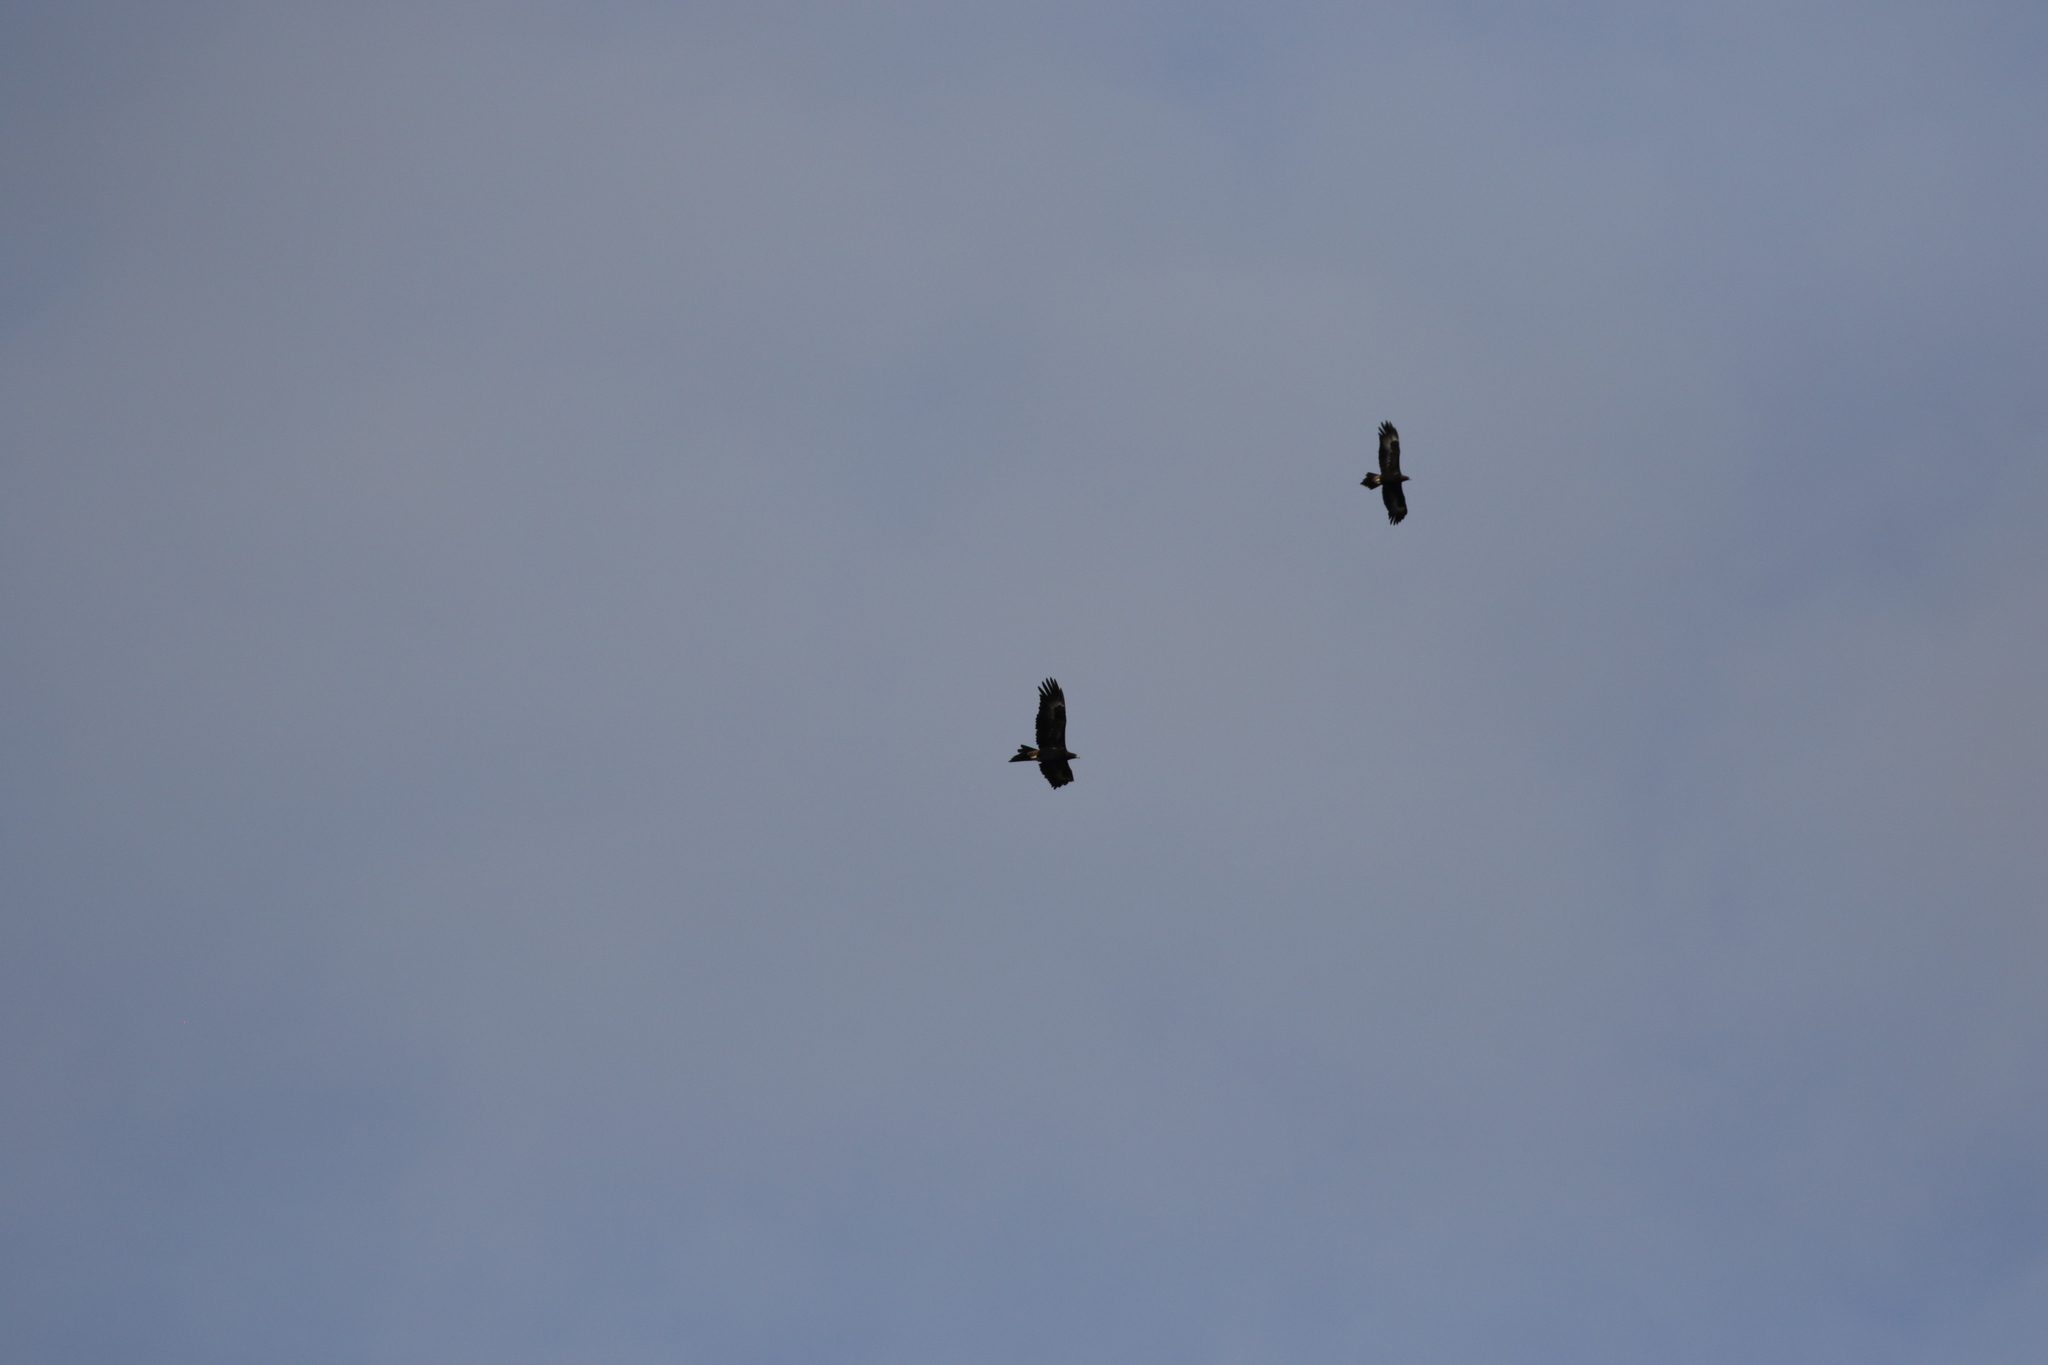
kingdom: Animalia
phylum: Chordata
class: Aves
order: Accipitriformes
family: Accipitridae
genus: Aquila
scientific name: Aquila audax
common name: Wedge-tailed eagle
